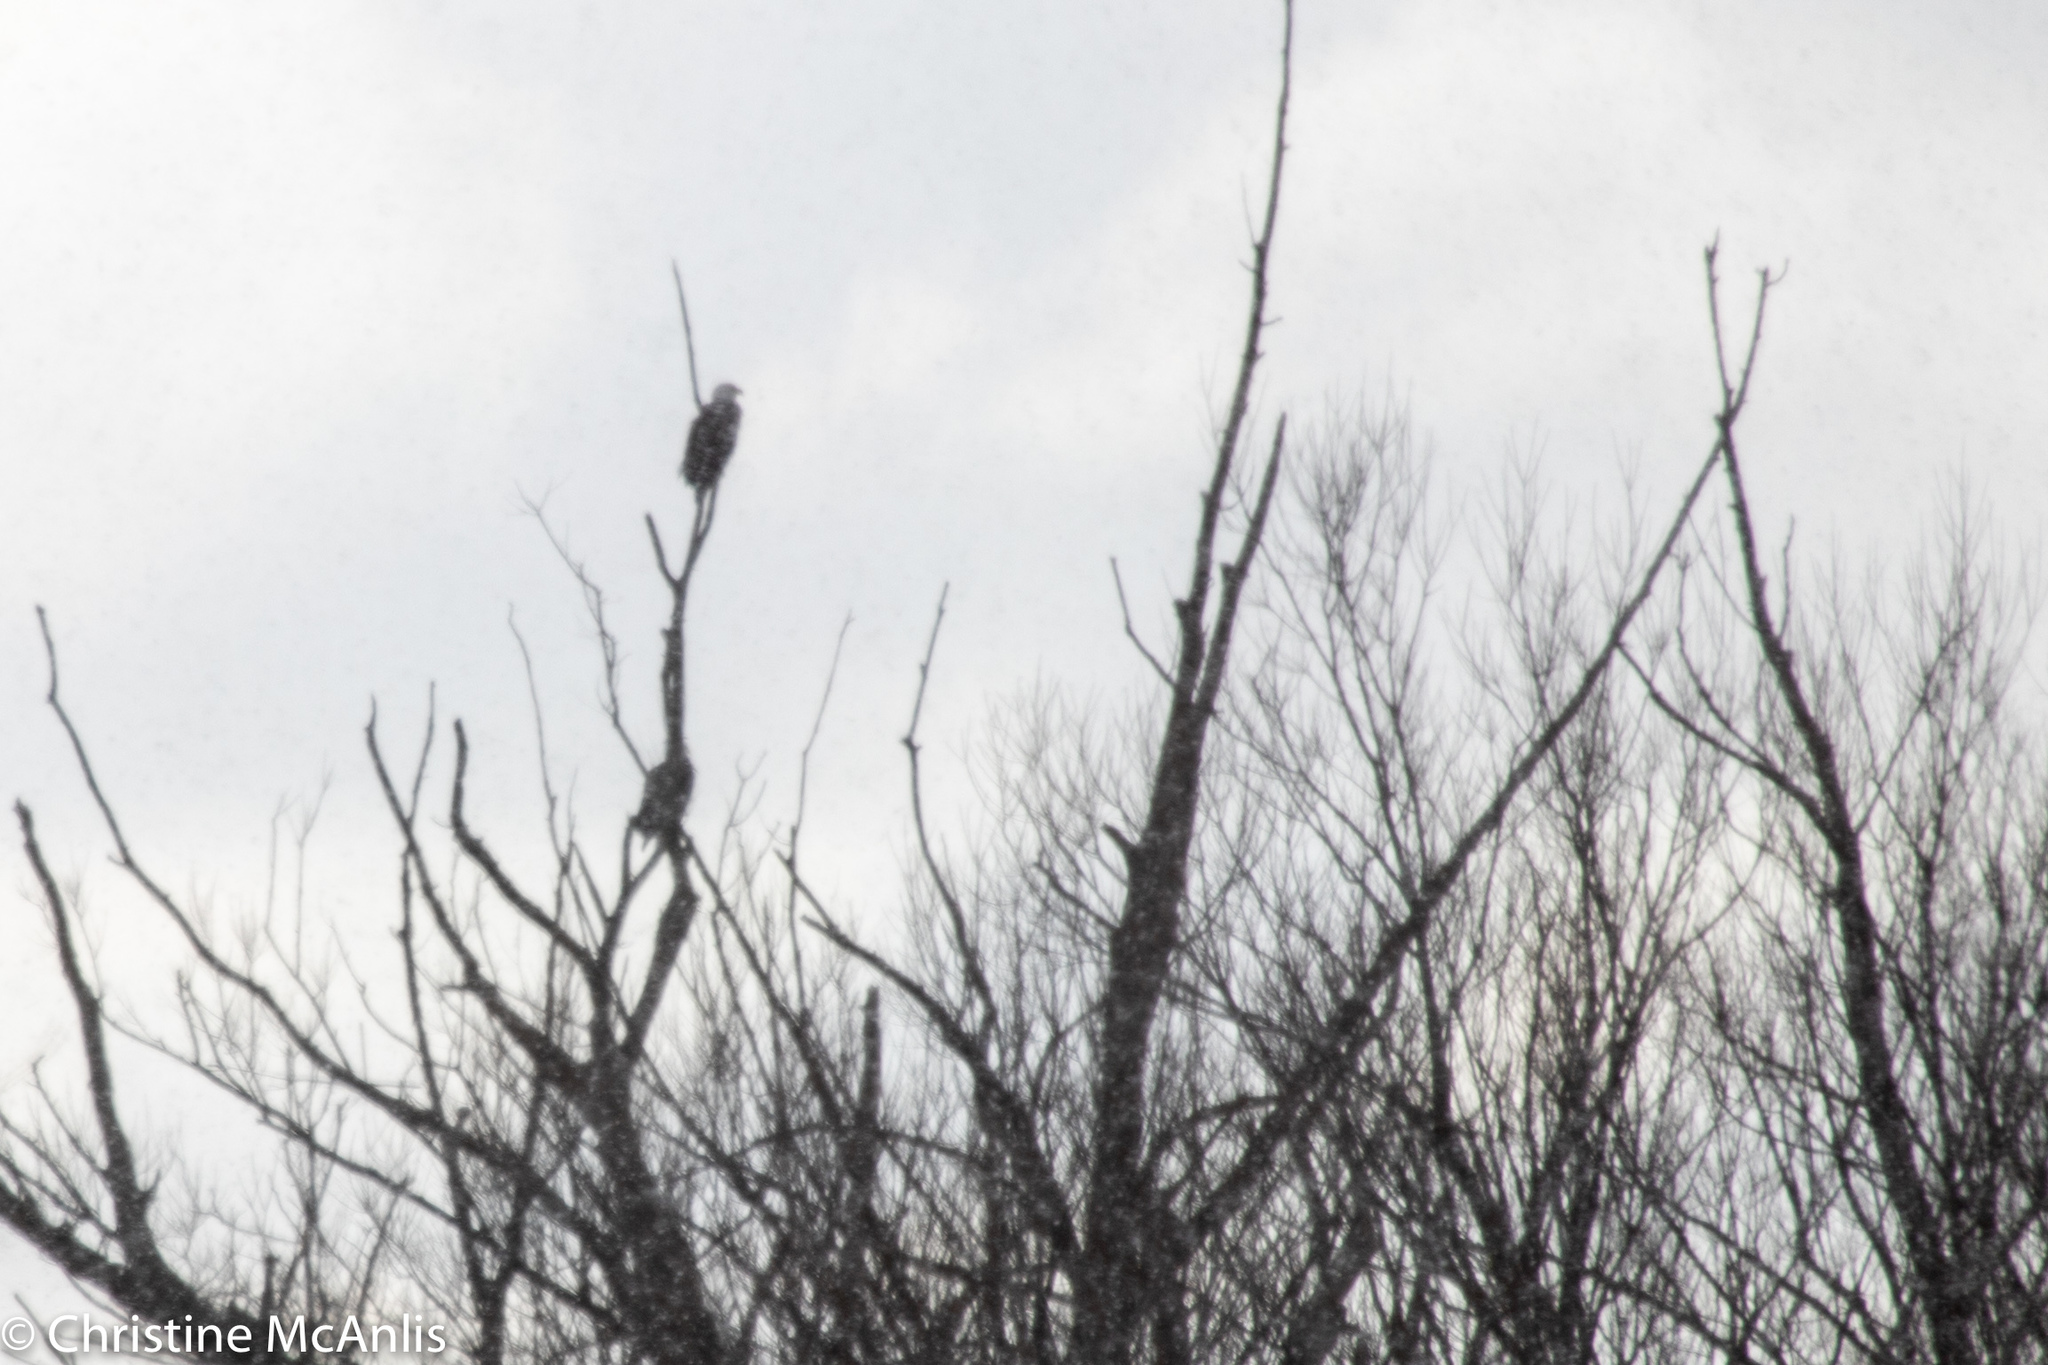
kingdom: Animalia
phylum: Chordata
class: Aves
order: Accipitriformes
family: Accipitridae
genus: Haliaeetus
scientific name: Haliaeetus leucocephalus
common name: Bald eagle
